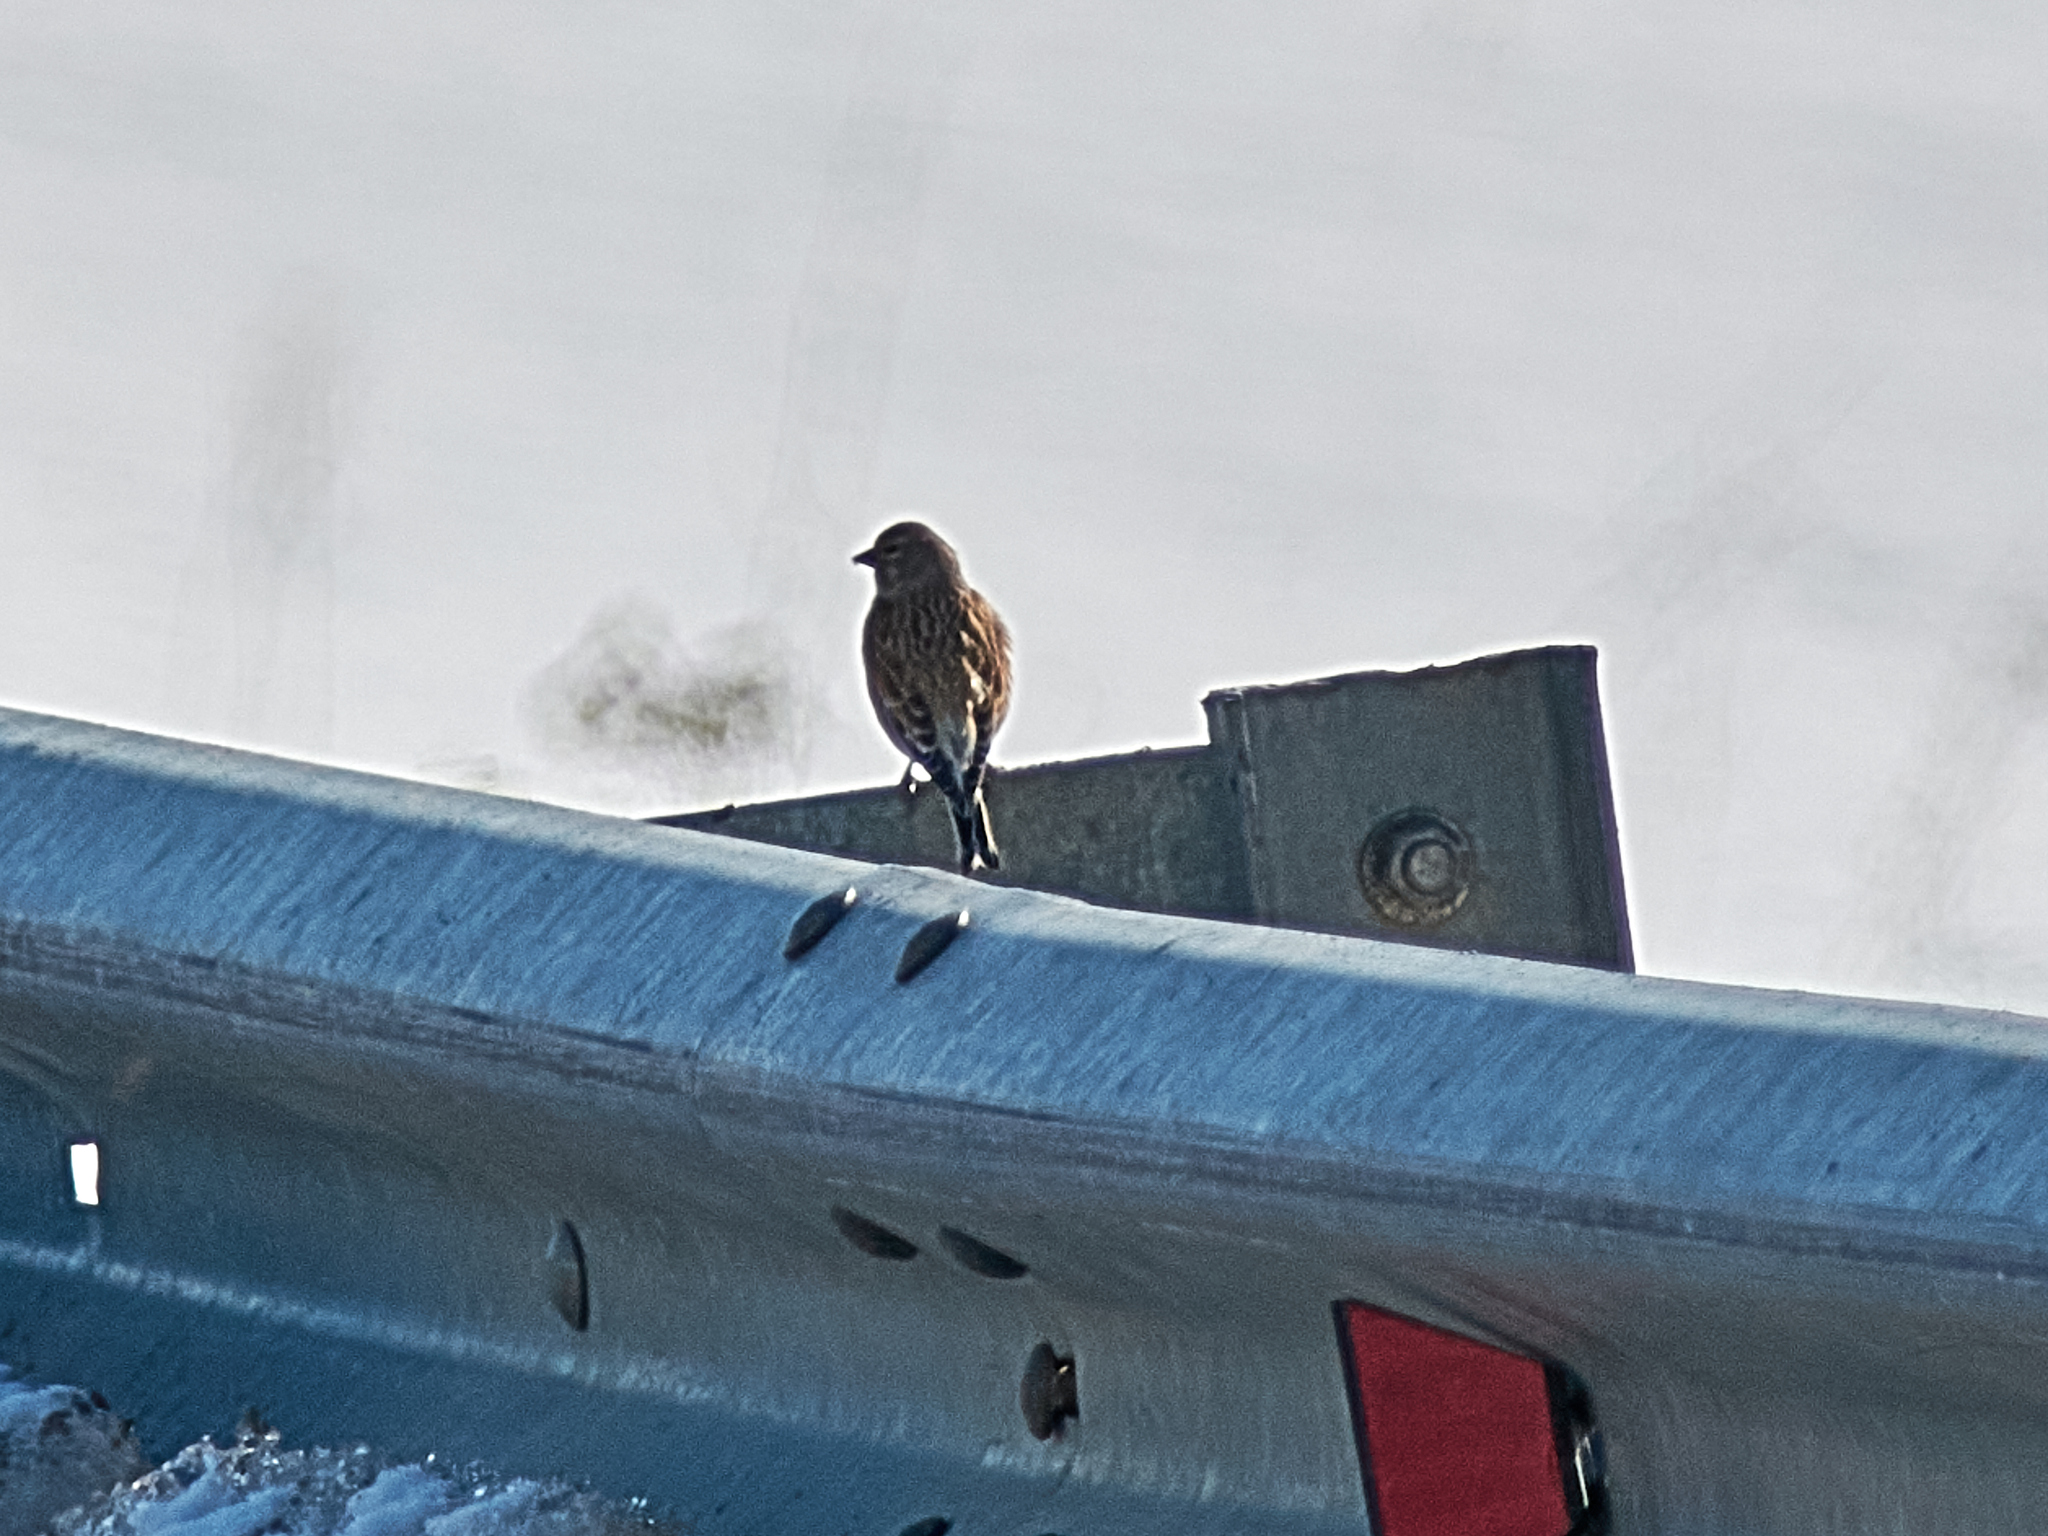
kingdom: Animalia
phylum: Chordata
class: Aves
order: Passeriformes
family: Fringillidae
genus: Linaria
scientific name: Linaria cannabina
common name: Common linnet
